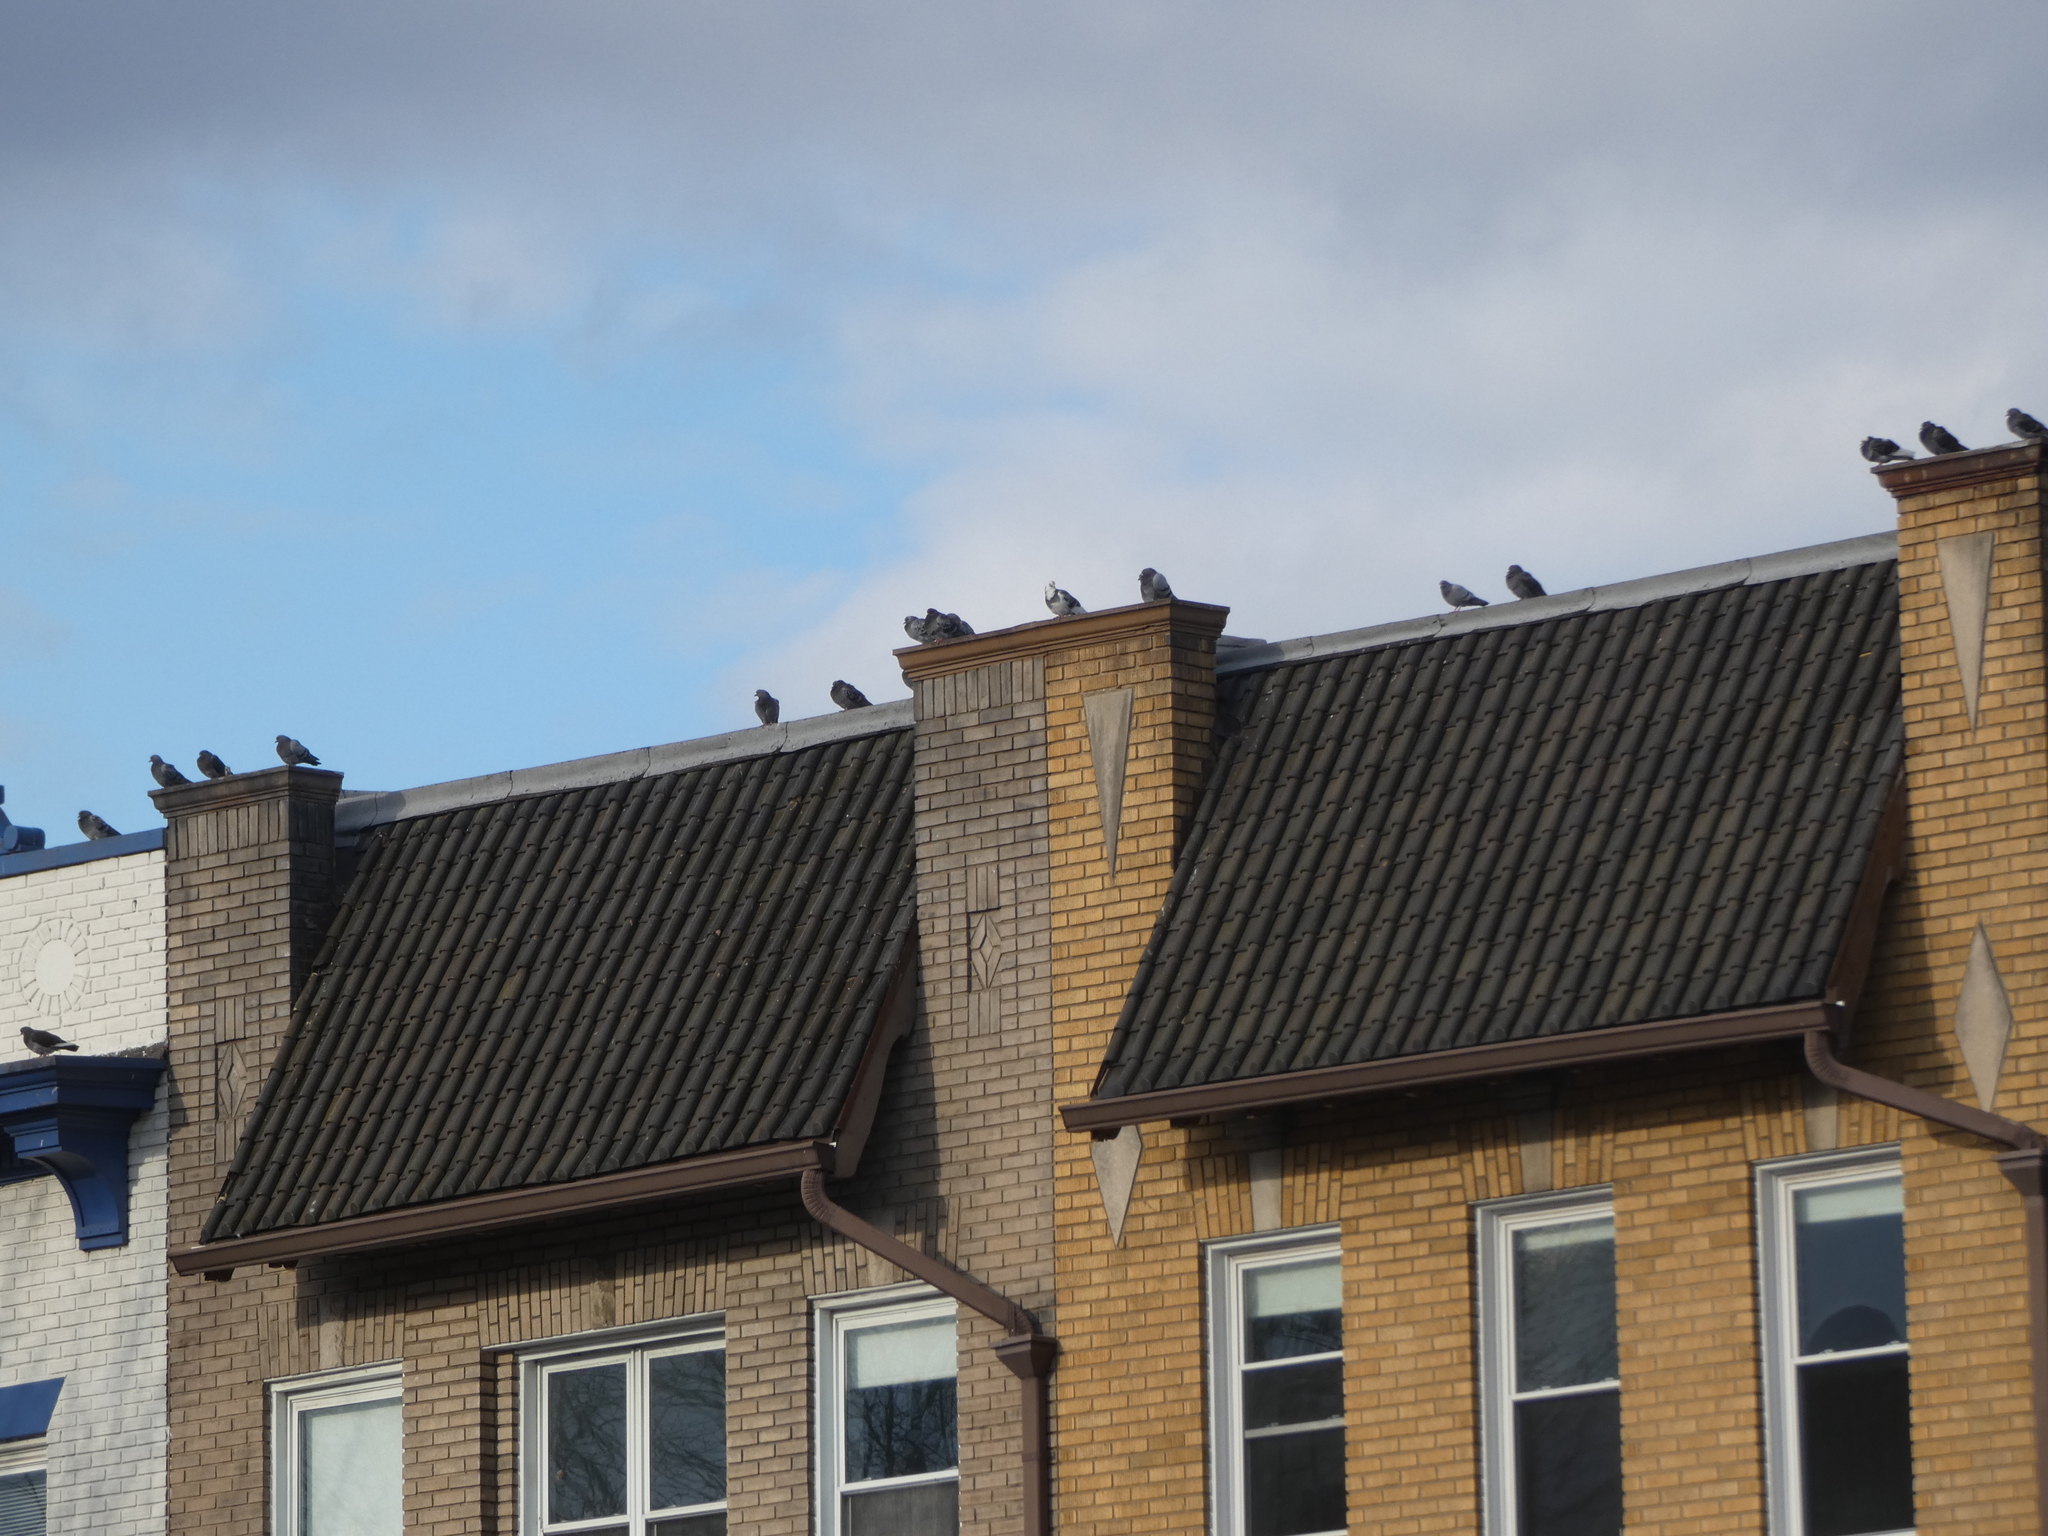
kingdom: Animalia
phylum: Chordata
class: Aves
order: Columbiformes
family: Columbidae
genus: Columba
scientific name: Columba livia
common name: Rock pigeon
